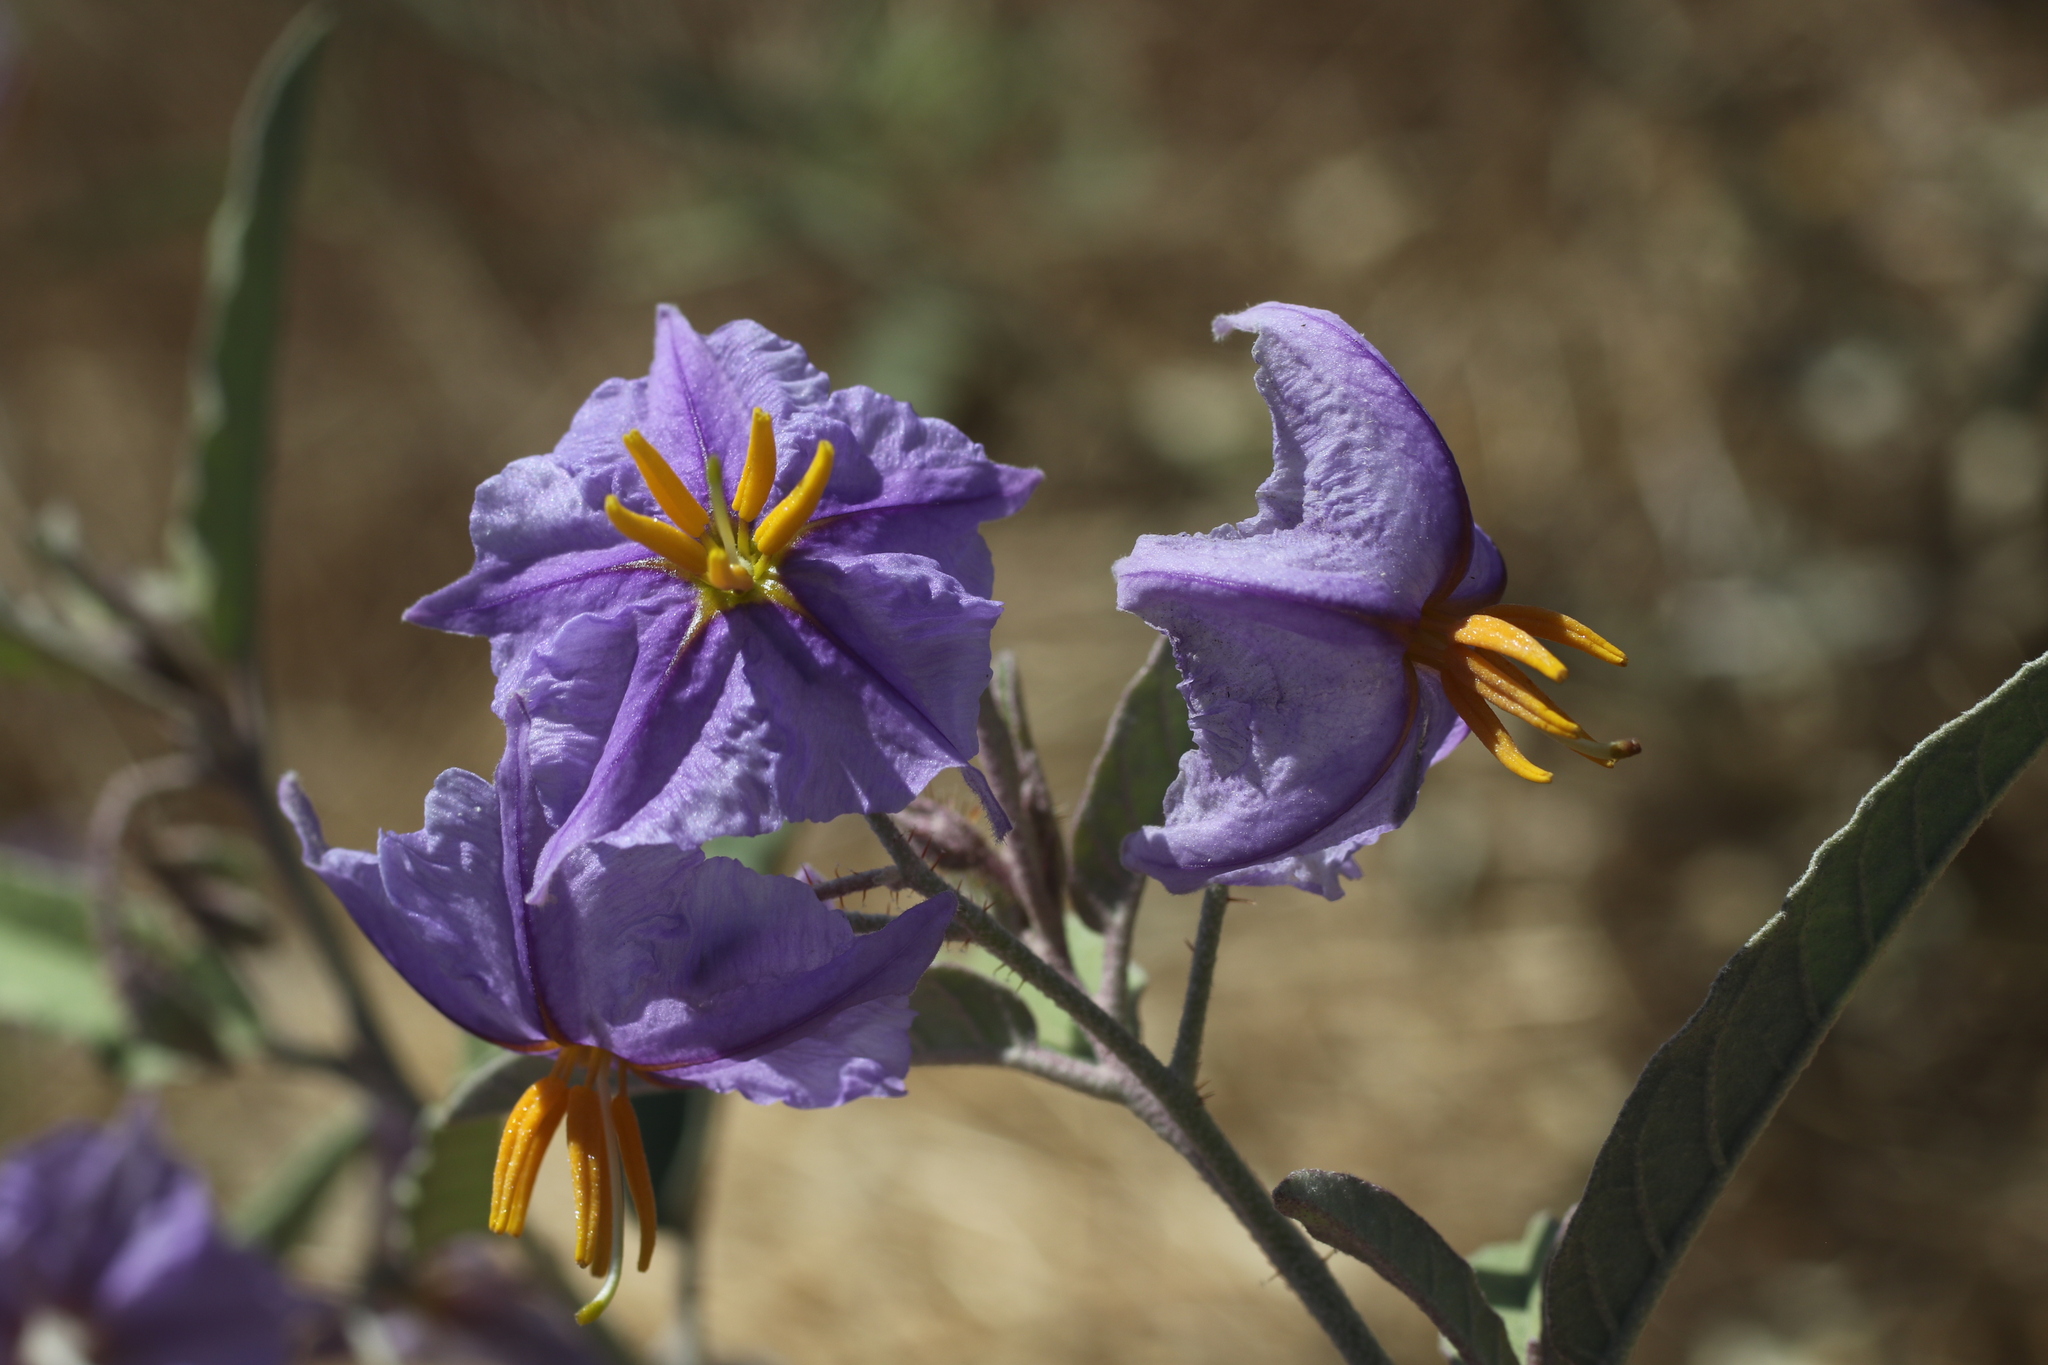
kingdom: Plantae
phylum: Tracheophyta
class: Magnoliopsida
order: Solanales
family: Solanaceae
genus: Solanum
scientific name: Solanum elaeagnifolium
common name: Silverleaf nightshade
